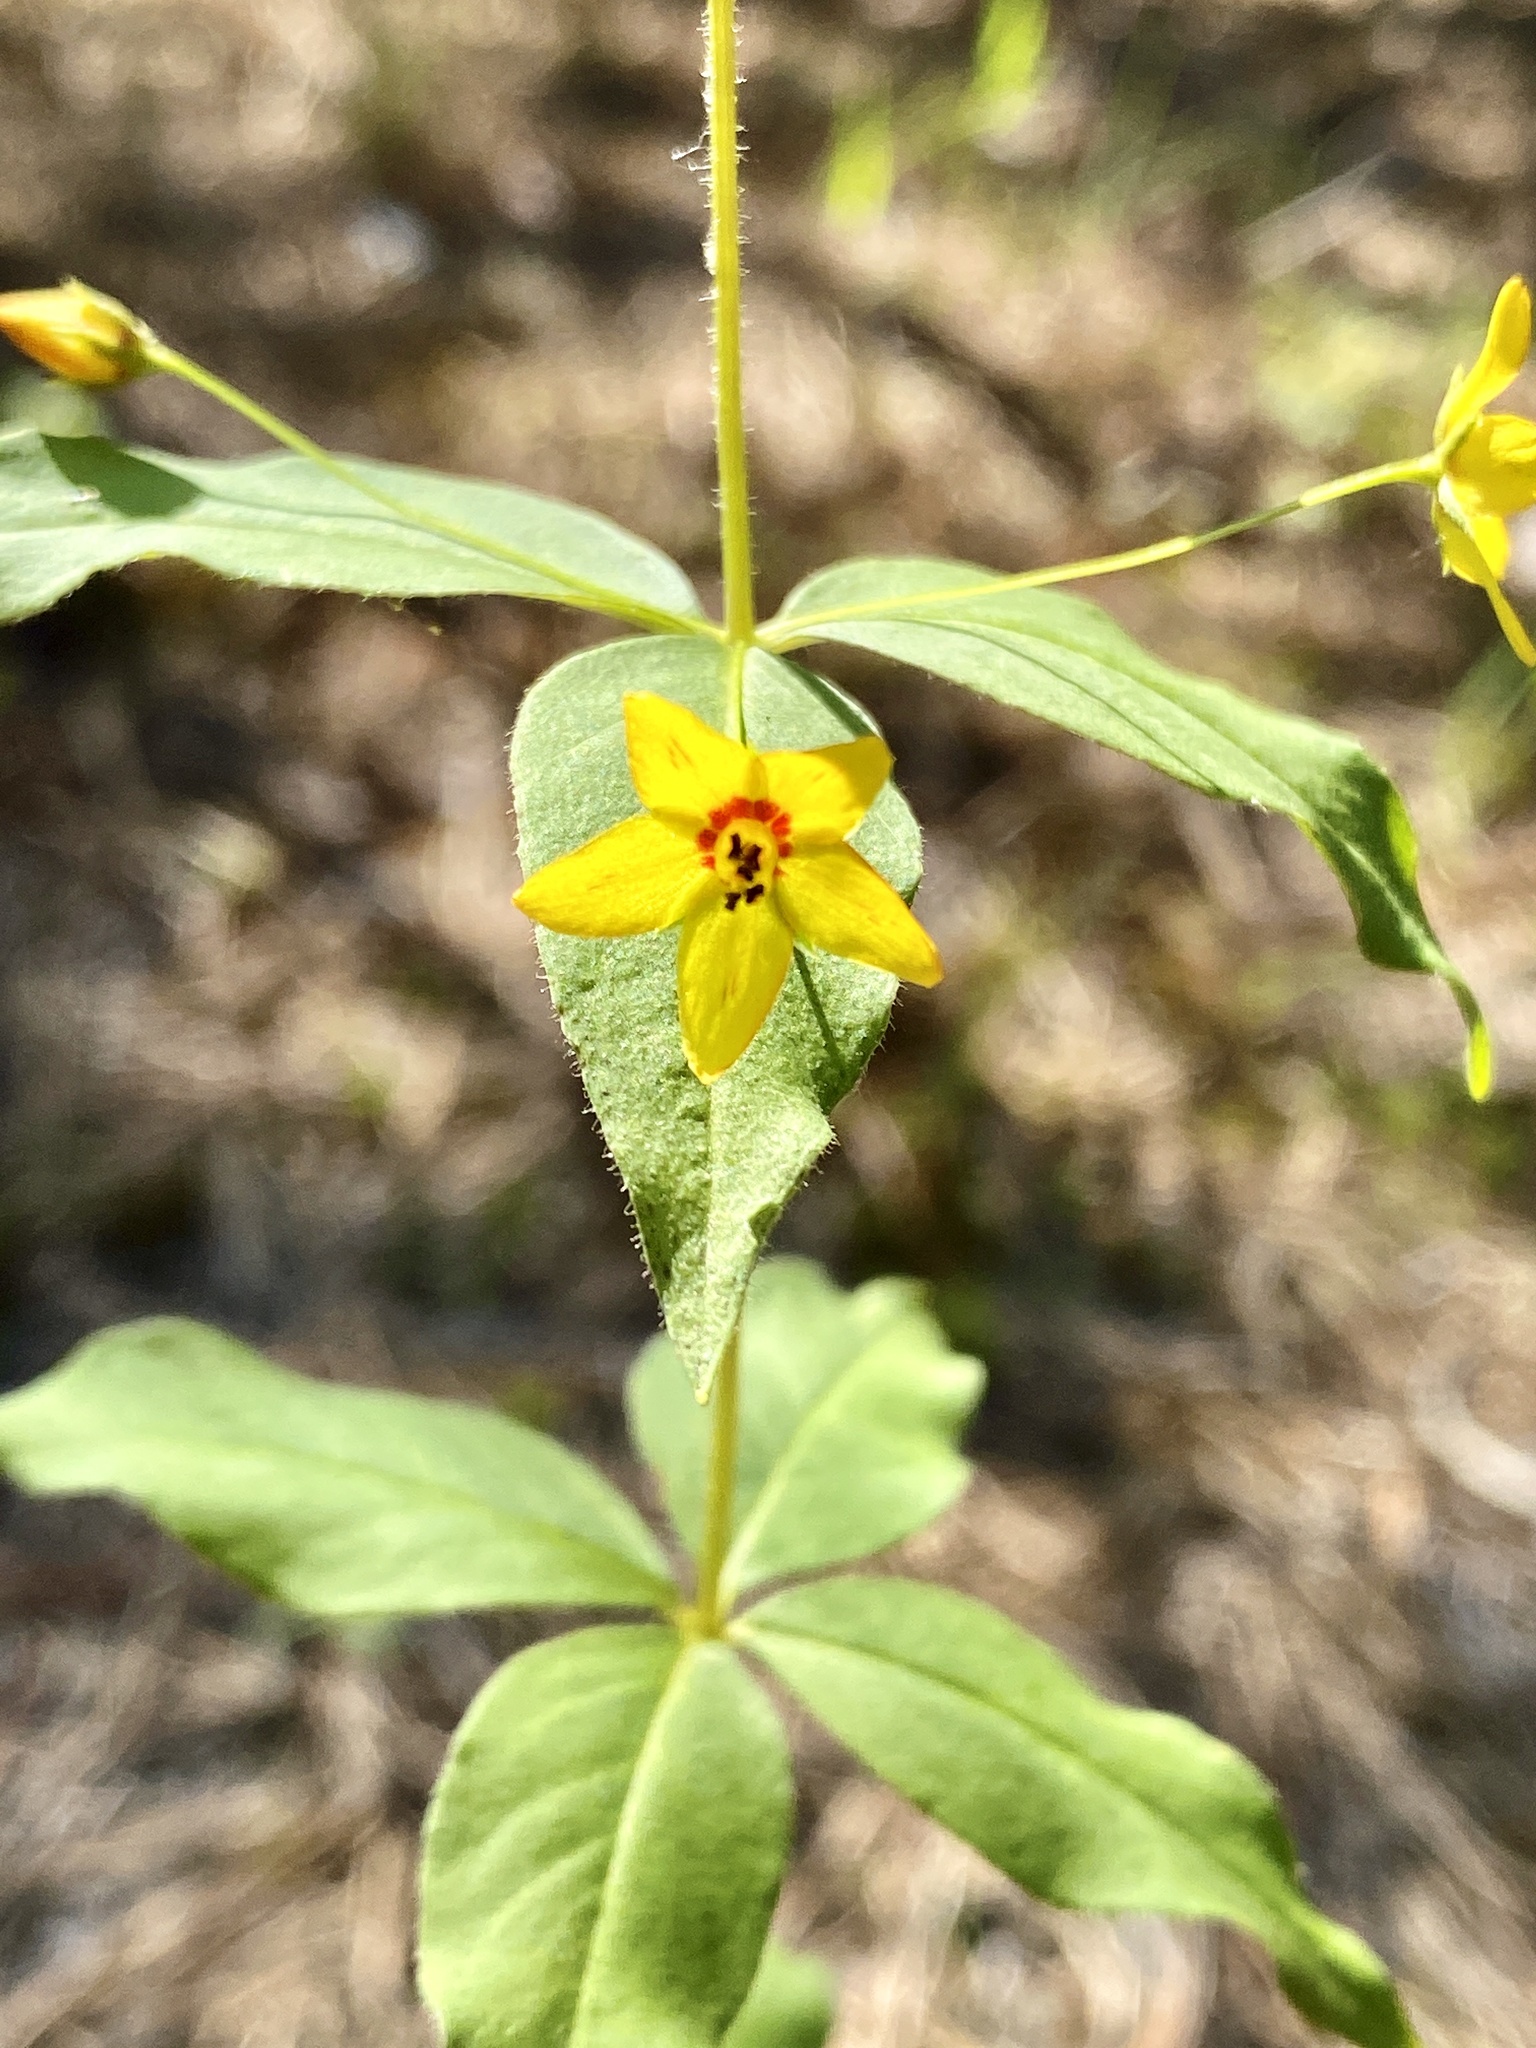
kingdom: Plantae
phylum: Tracheophyta
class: Magnoliopsida
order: Ericales
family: Primulaceae
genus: Lysimachia
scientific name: Lysimachia quadrifolia
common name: Whorled loosestrife
